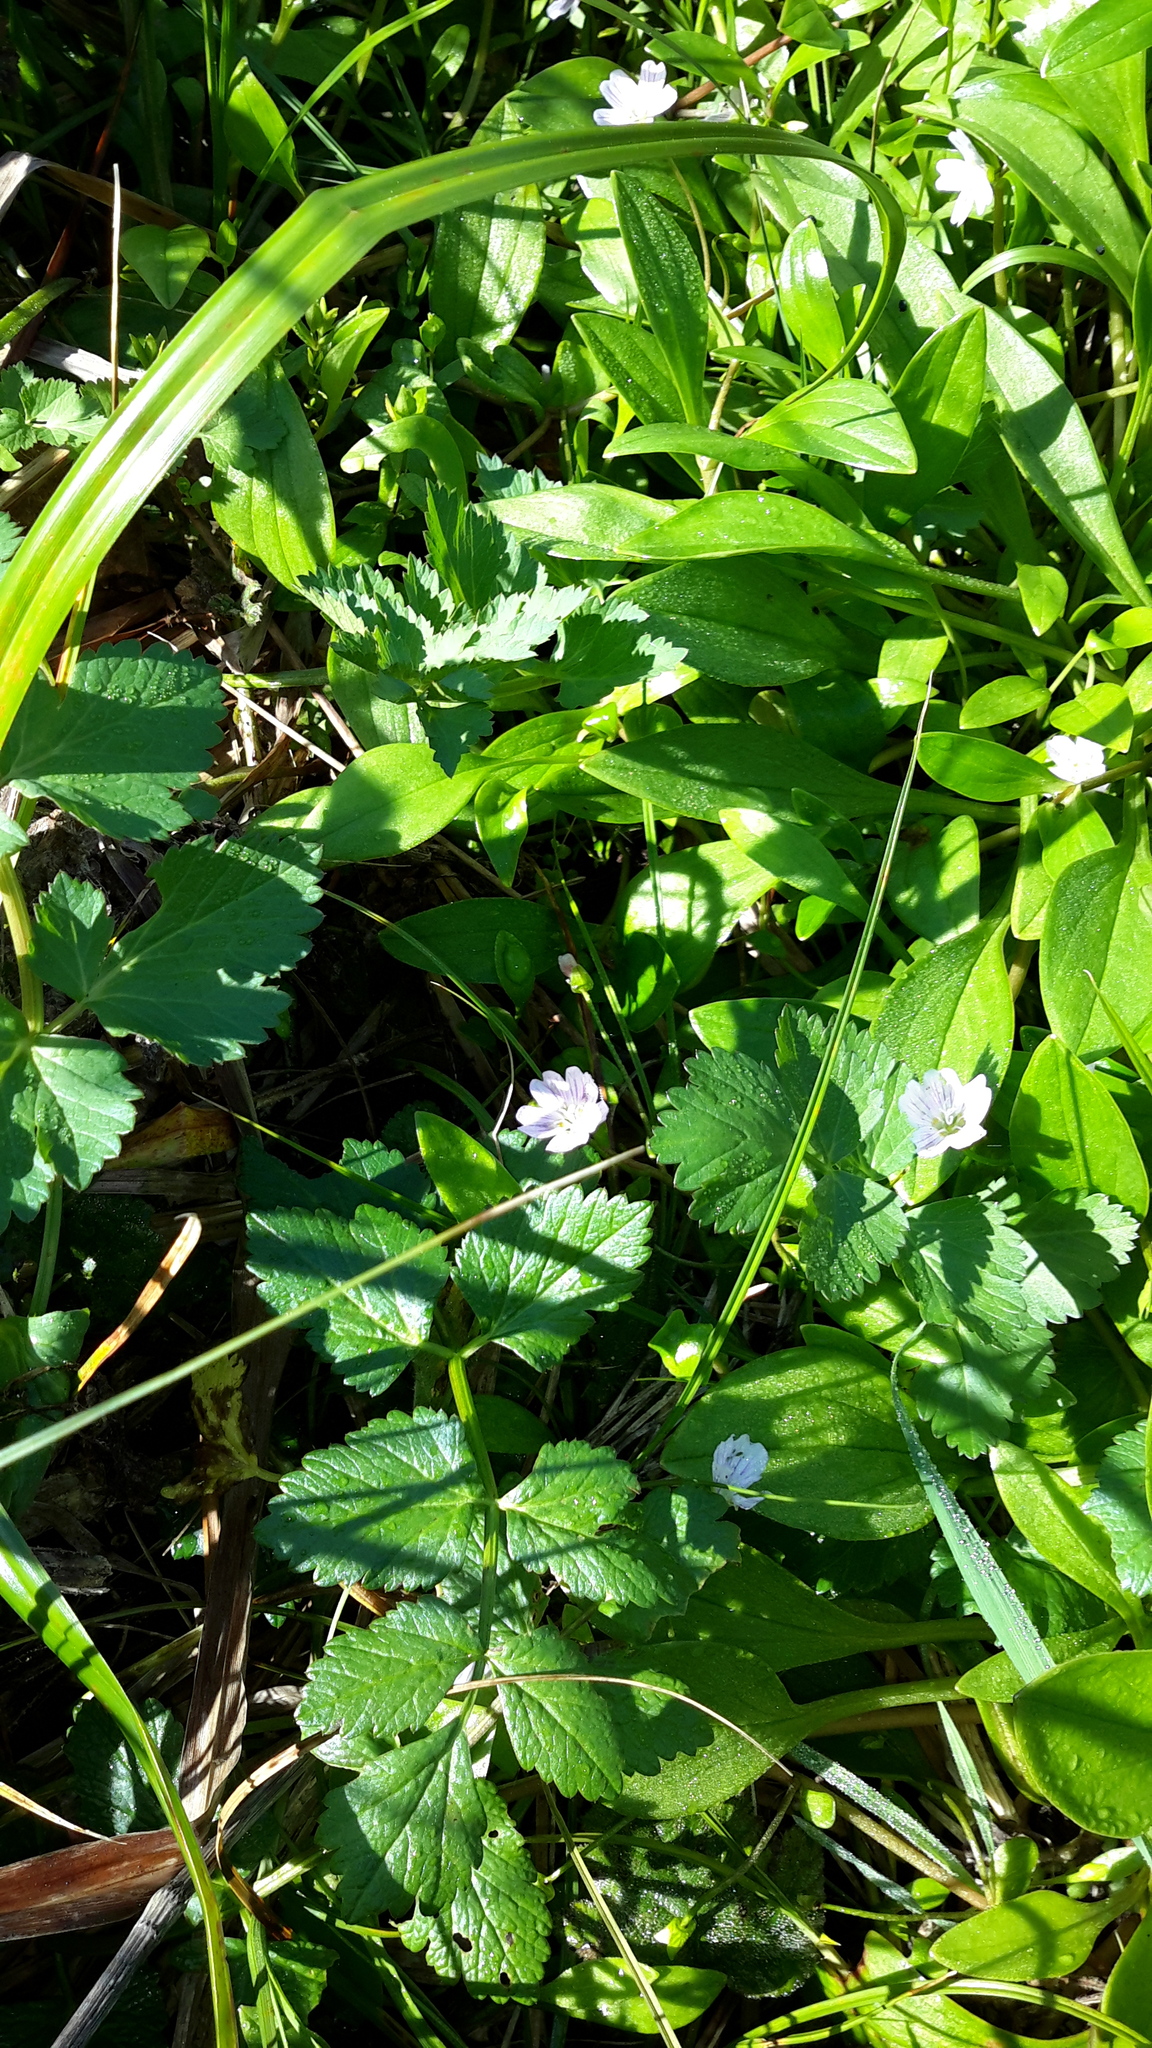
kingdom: Plantae
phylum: Tracheophyta
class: Magnoliopsida
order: Caryophyllales
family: Montiaceae
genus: Claytonia
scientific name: Claytonia sibirica
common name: Pink purslane
